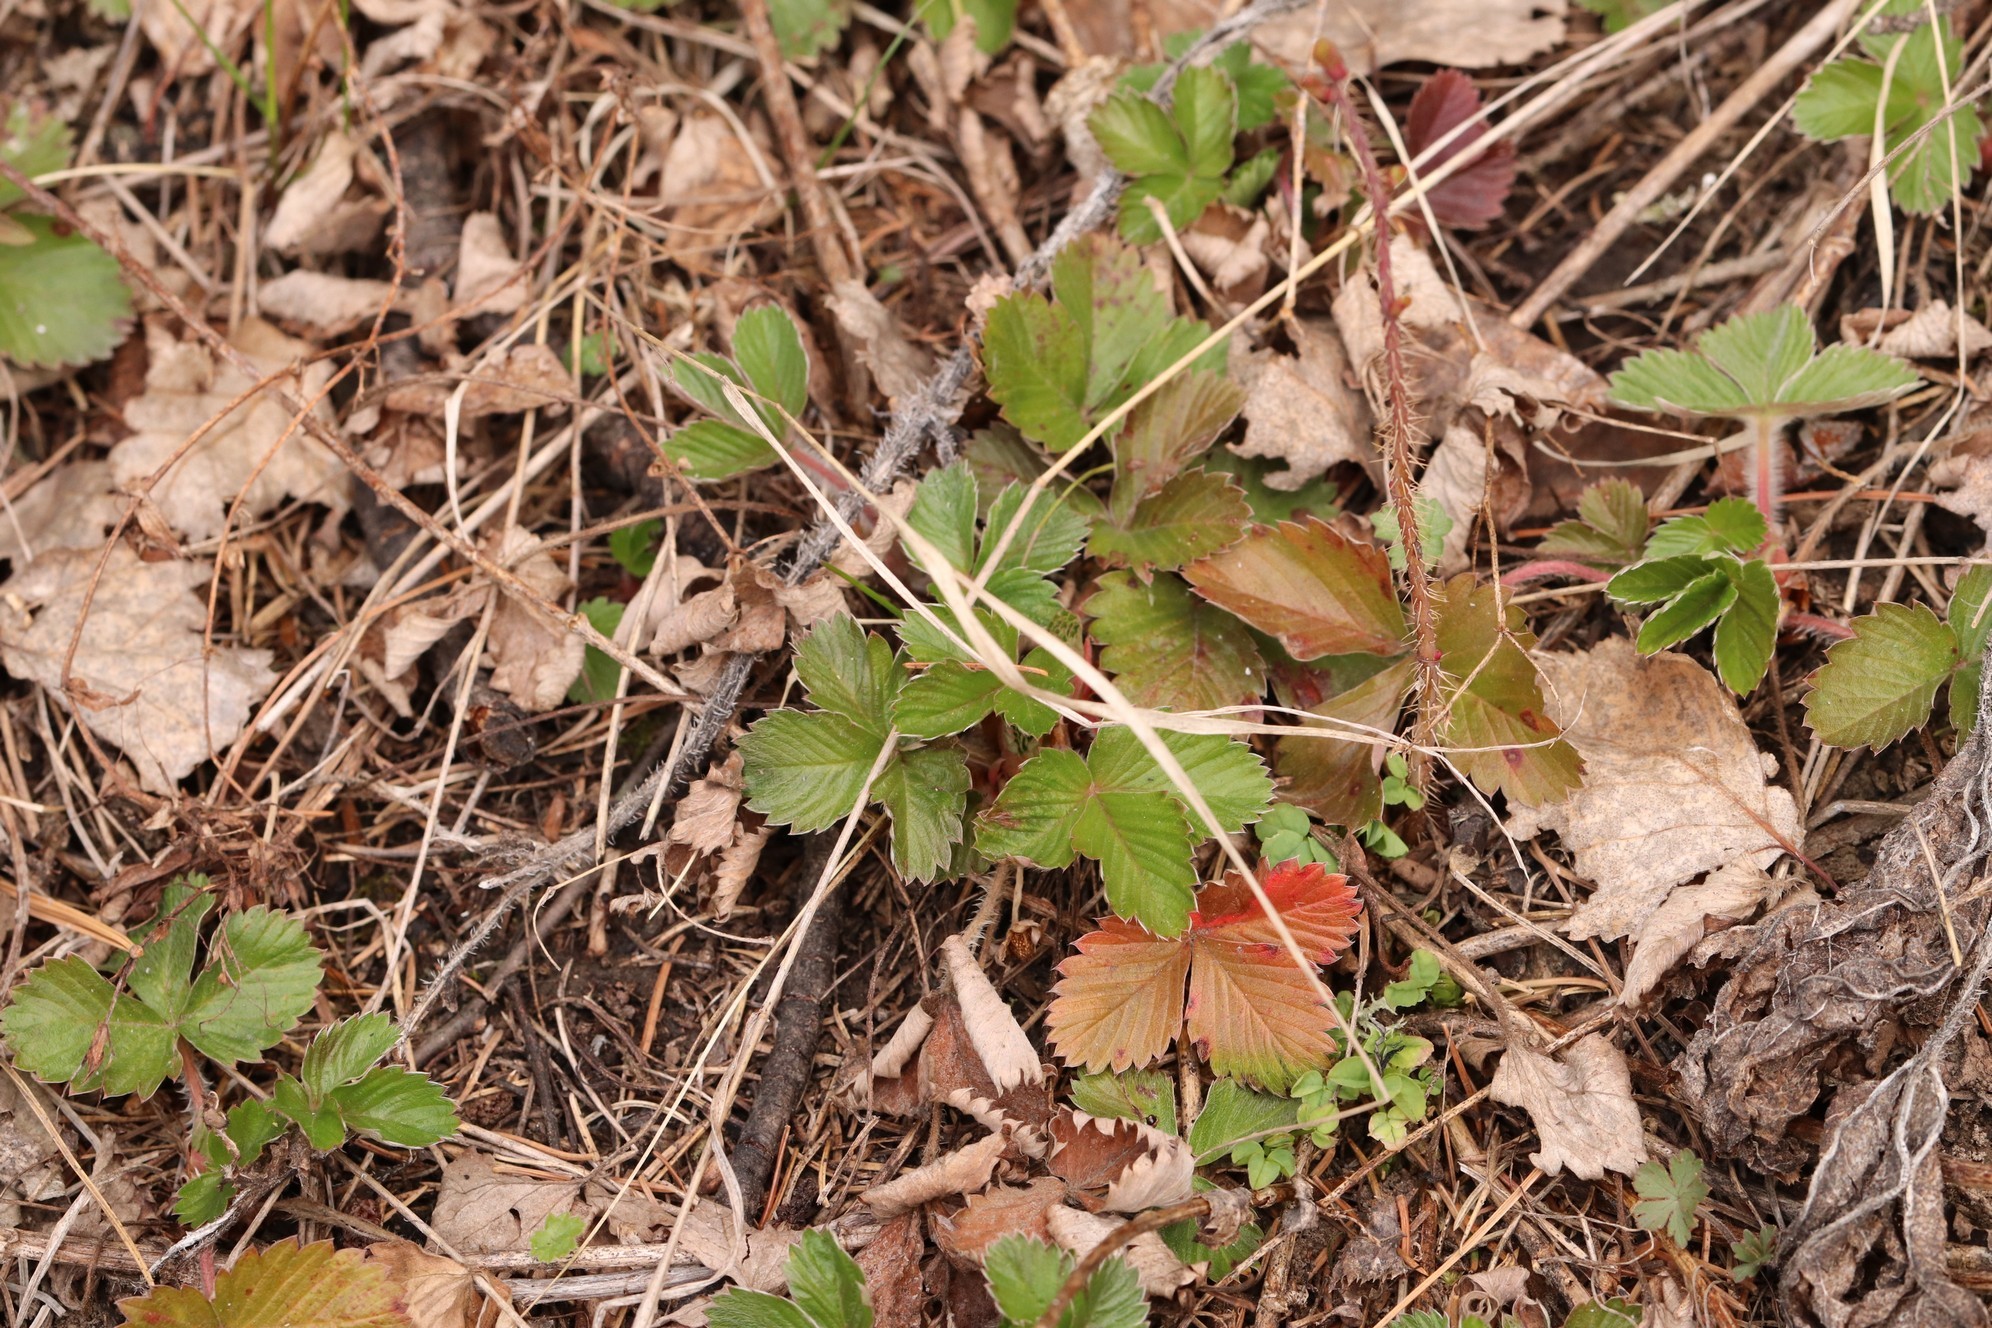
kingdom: Plantae
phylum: Tracheophyta
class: Magnoliopsida
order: Rosales
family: Rosaceae
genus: Fragaria
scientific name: Fragaria vesca
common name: Wild strawberry
